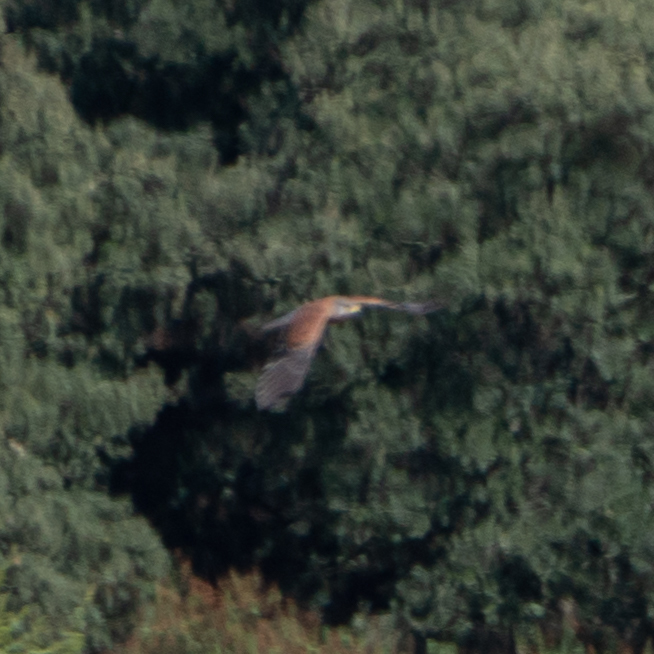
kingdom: Animalia
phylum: Chordata
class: Aves
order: Falconiformes
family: Falconidae
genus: Falco
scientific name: Falco tinnunculus
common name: Common kestrel
